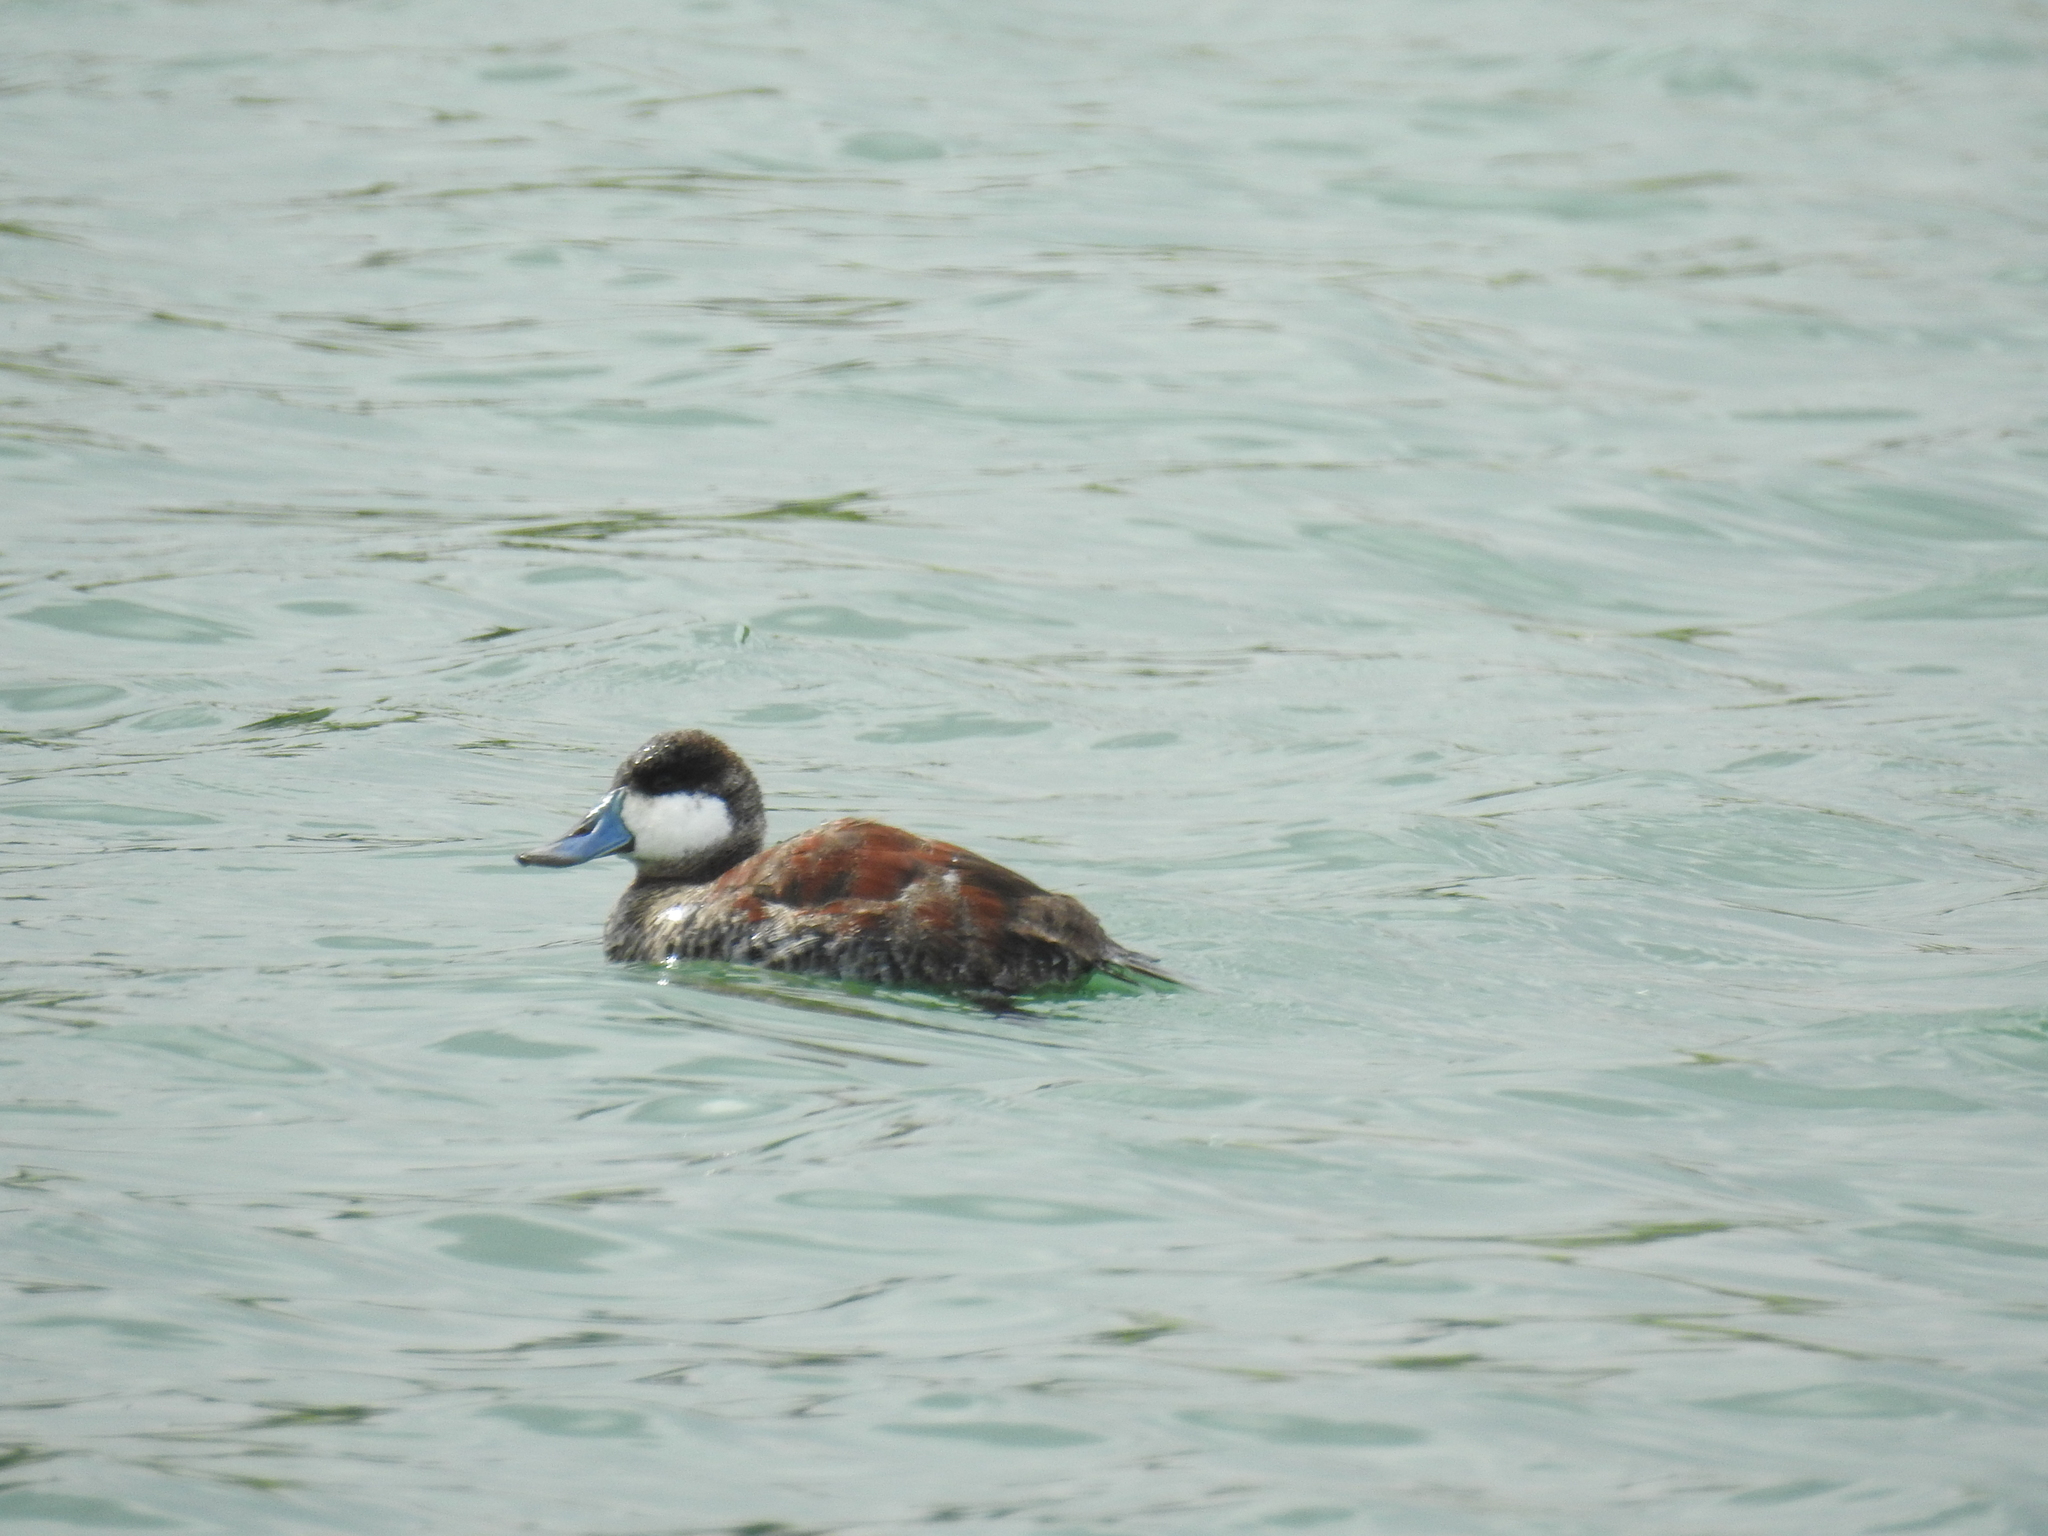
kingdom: Animalia
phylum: Chordata
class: Aves
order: Anseriformes
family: Anatidae
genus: Oxyura
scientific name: Oxyura jamaicensis
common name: Ruddy duck
